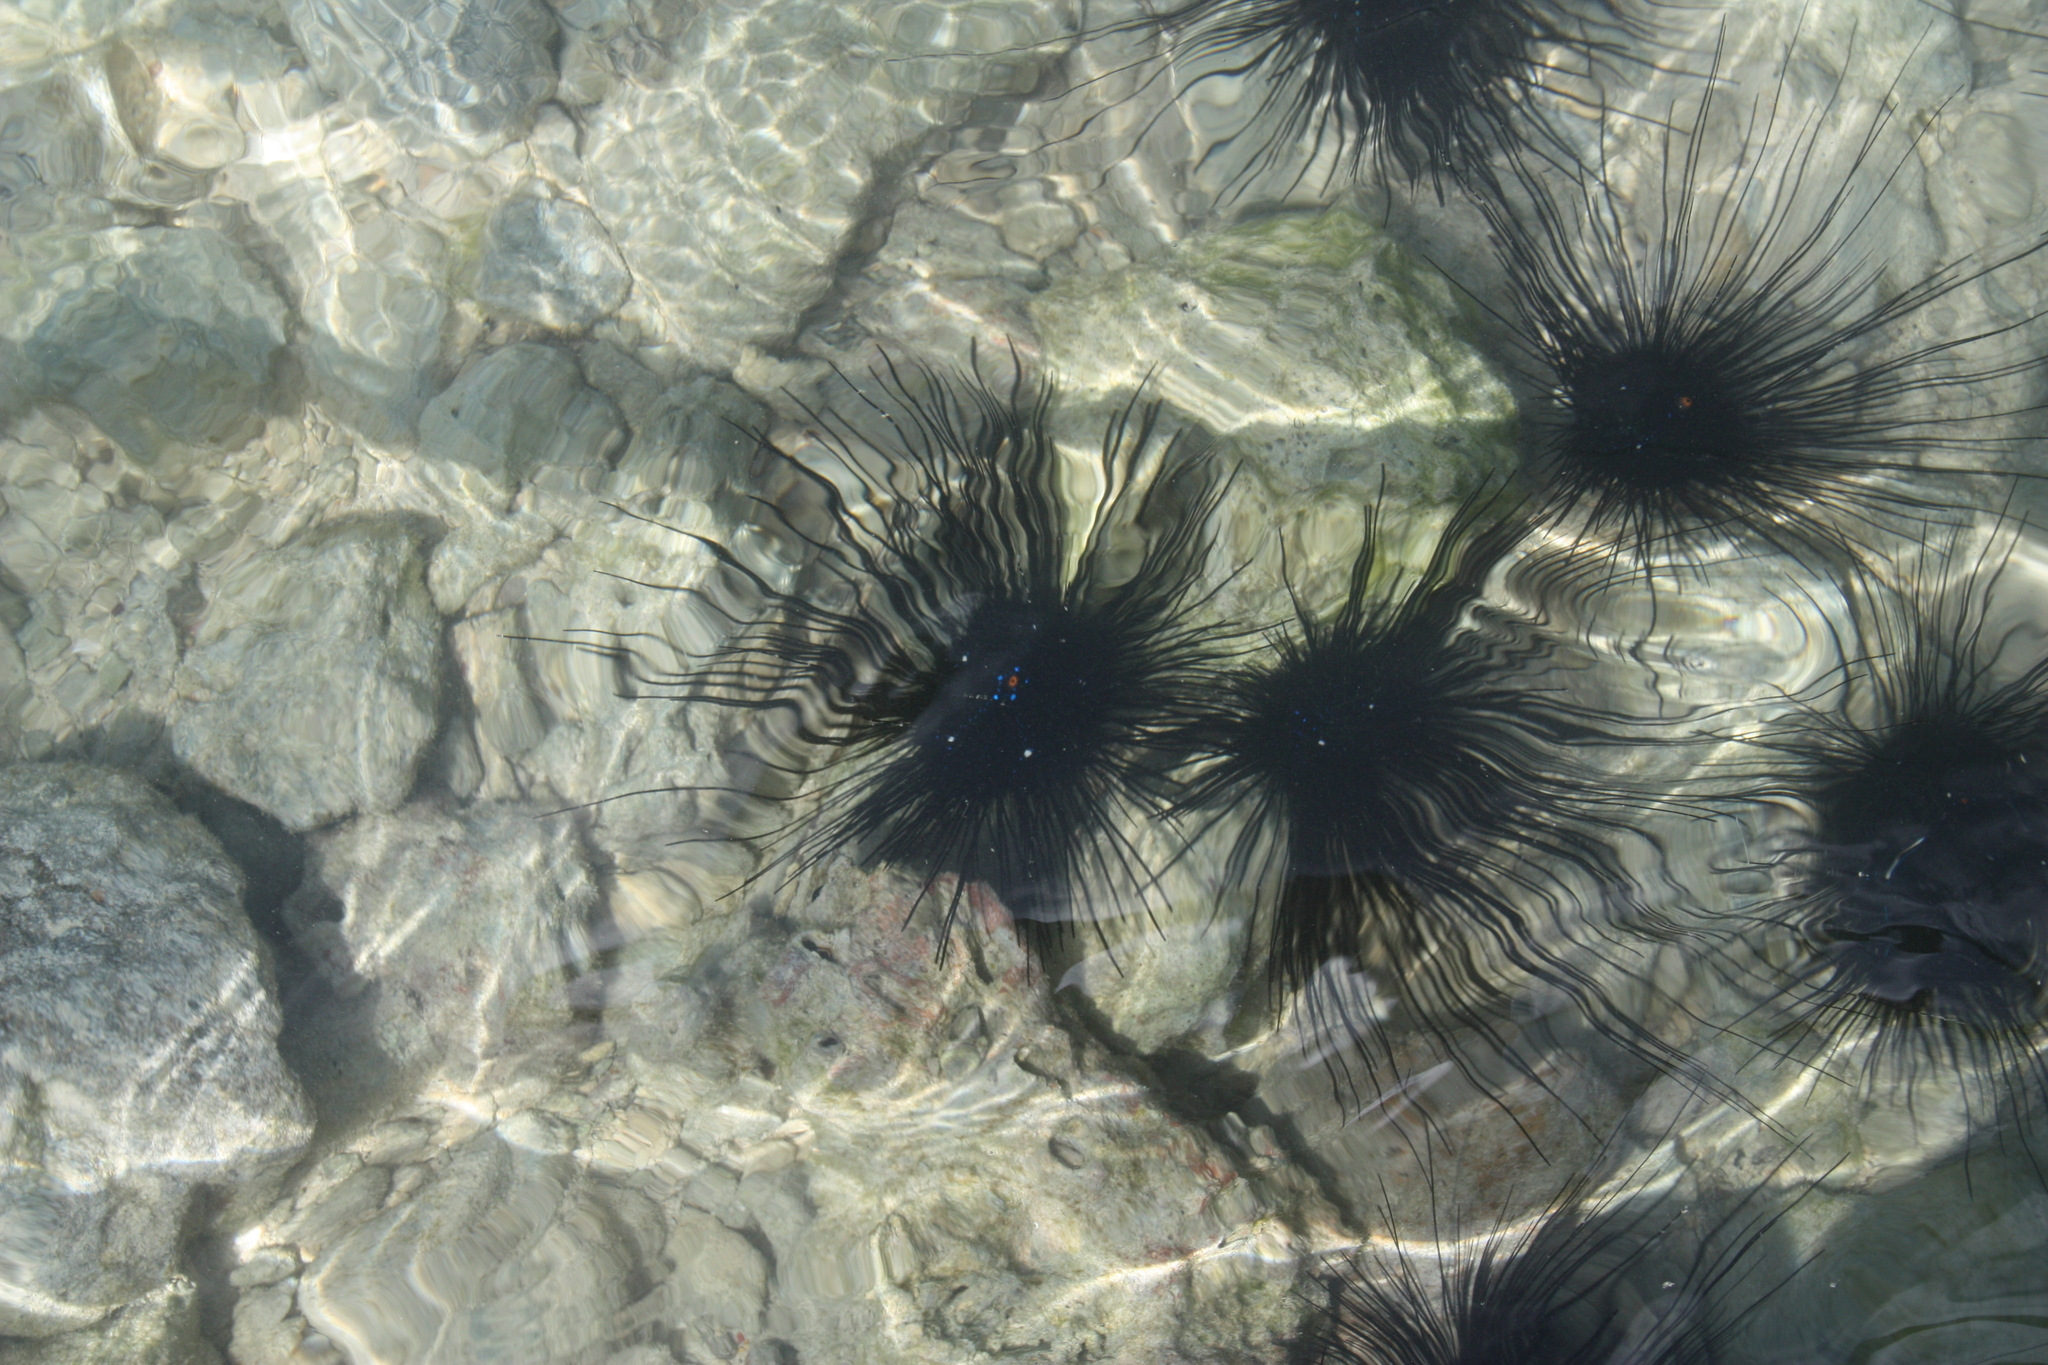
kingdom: Animalia
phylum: Echinodermata
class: Echinoidea
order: Diadematoida
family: Diadematidae
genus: Diadema
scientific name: Diadema setosum
